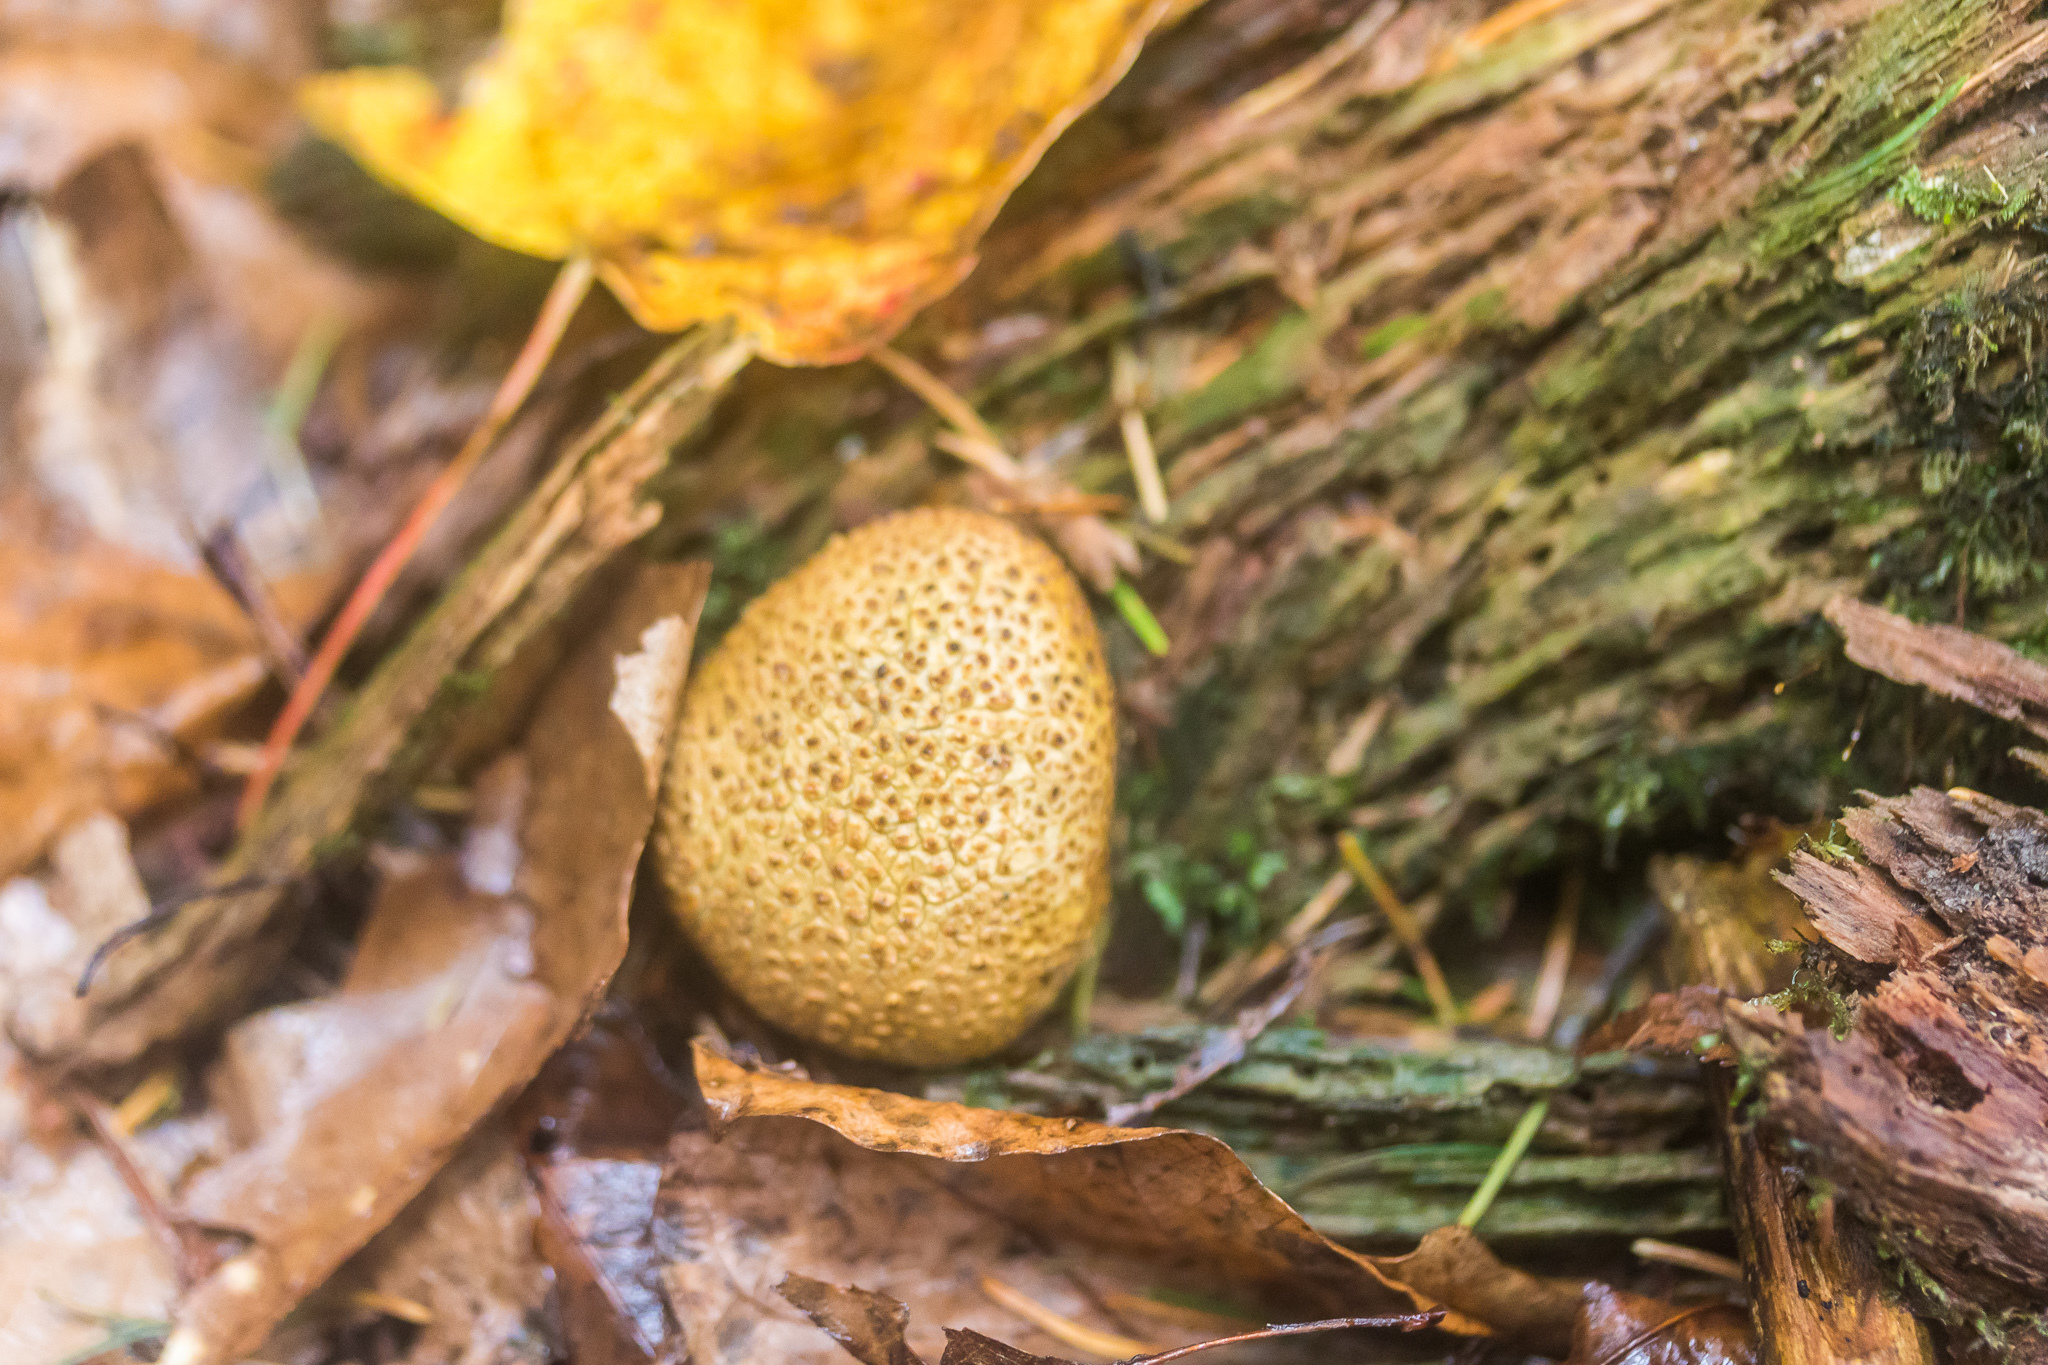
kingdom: Fungi
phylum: Basidiomycota
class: Agaricomycetes
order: Boletales
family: Sclerodermataceae
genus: Scleroderma
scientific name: Scleroderma citrinum
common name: Common earthball
